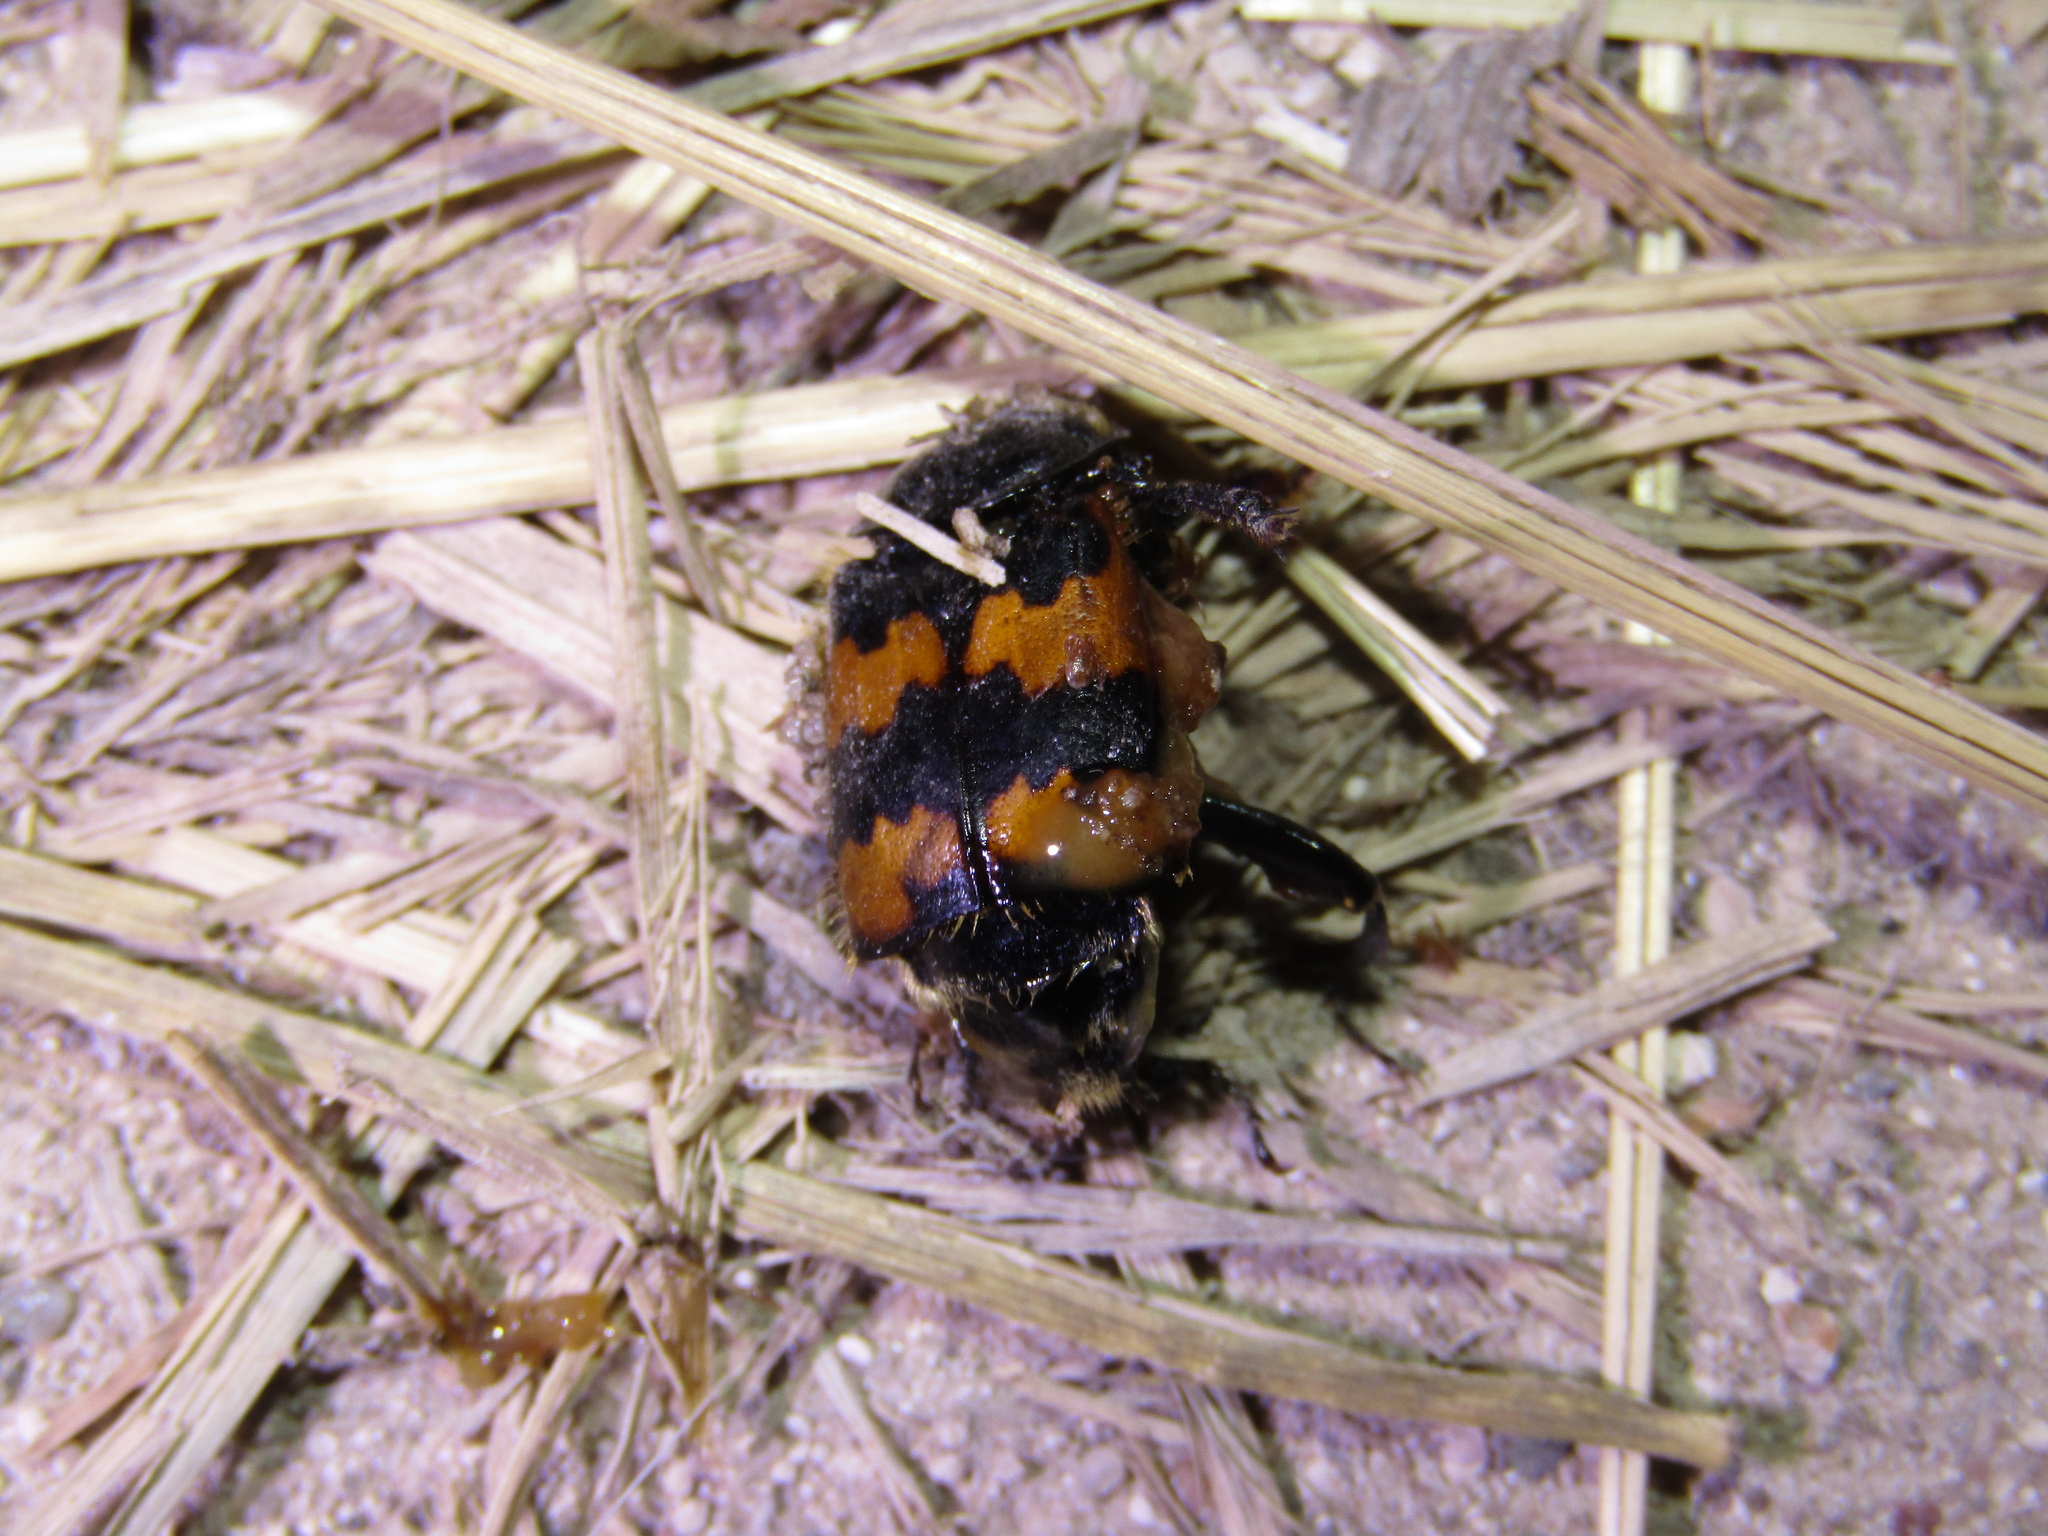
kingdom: Animalia
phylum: Arthropoda
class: Insecta
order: Coleoptera
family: Staphylinidae
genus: Nicrophorus
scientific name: Nicrophorus vespillo
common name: Common burying beetle
